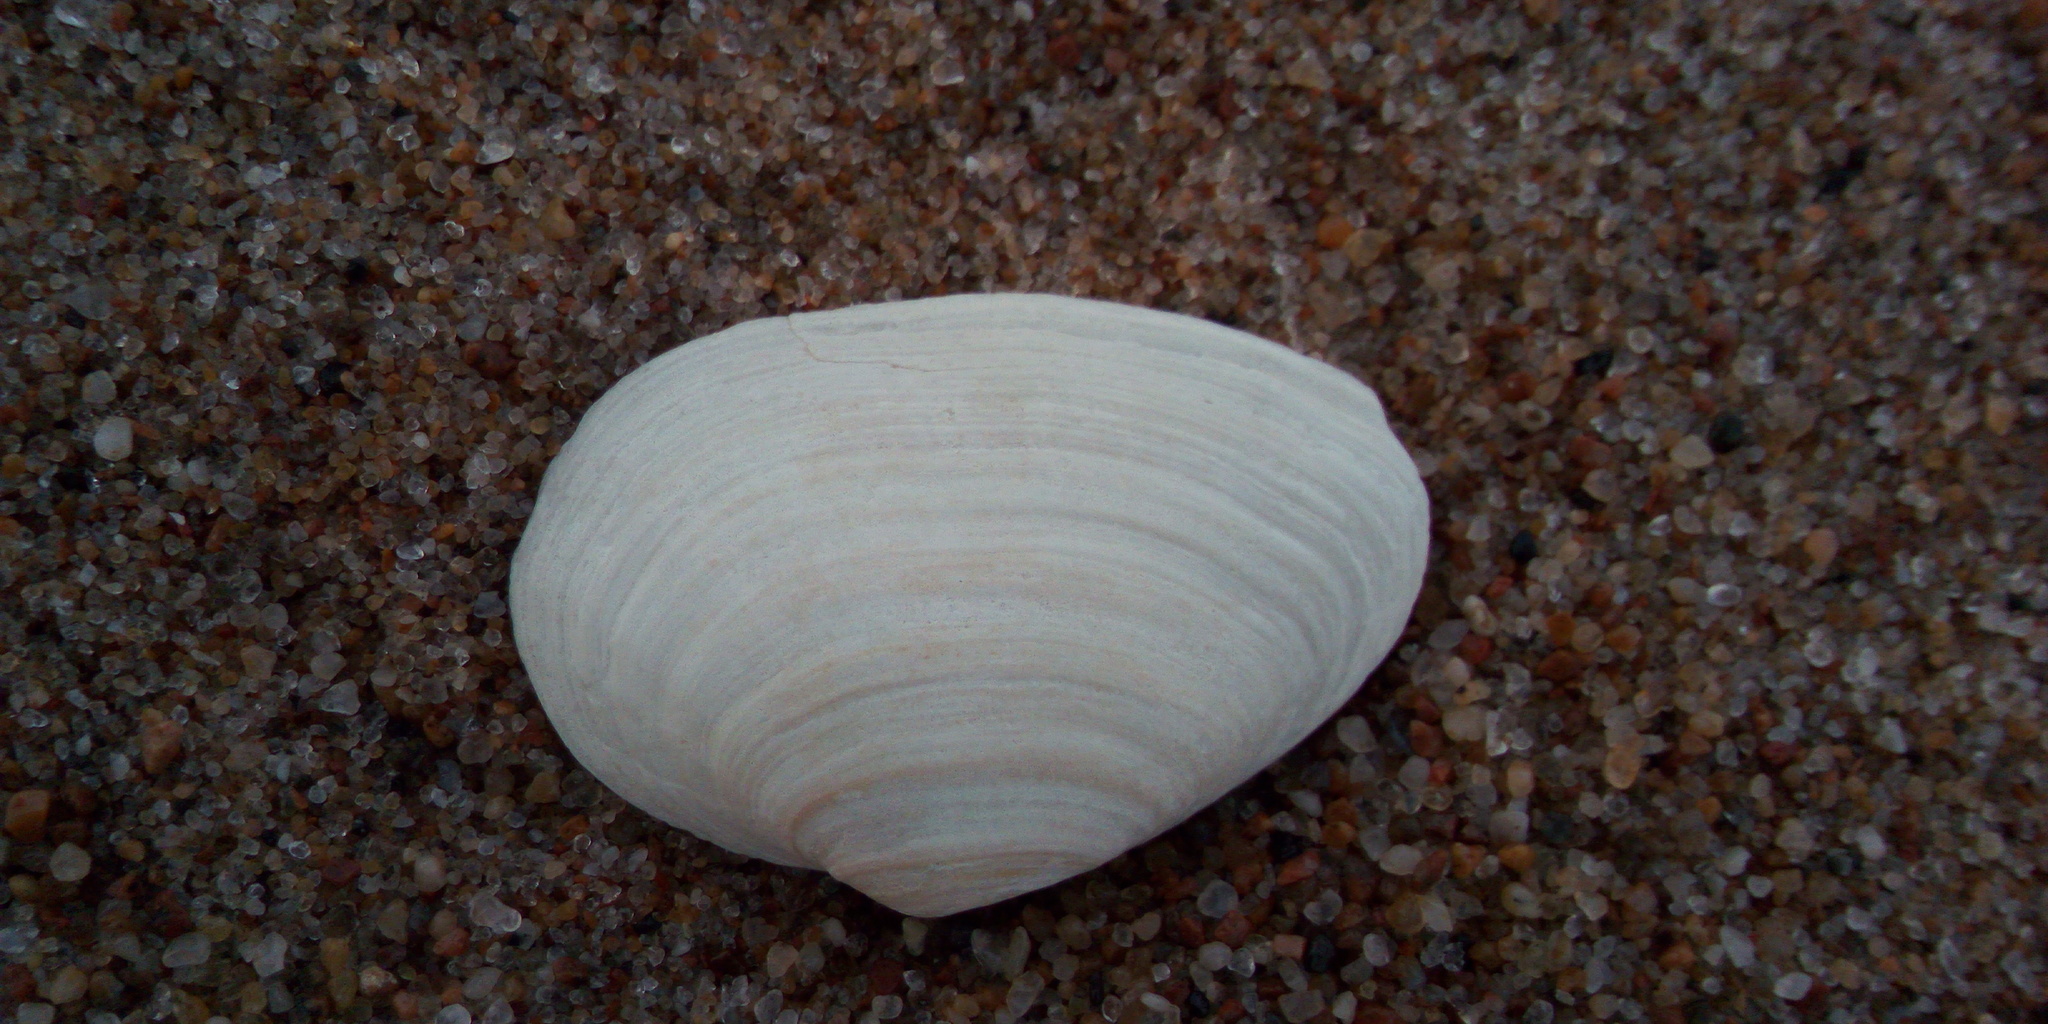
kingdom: Animalia
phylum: Mollusca
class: Bivalvia
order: Myida
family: Myidae
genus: Mya
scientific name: Mya arenaria
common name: Soft-shelled clam
